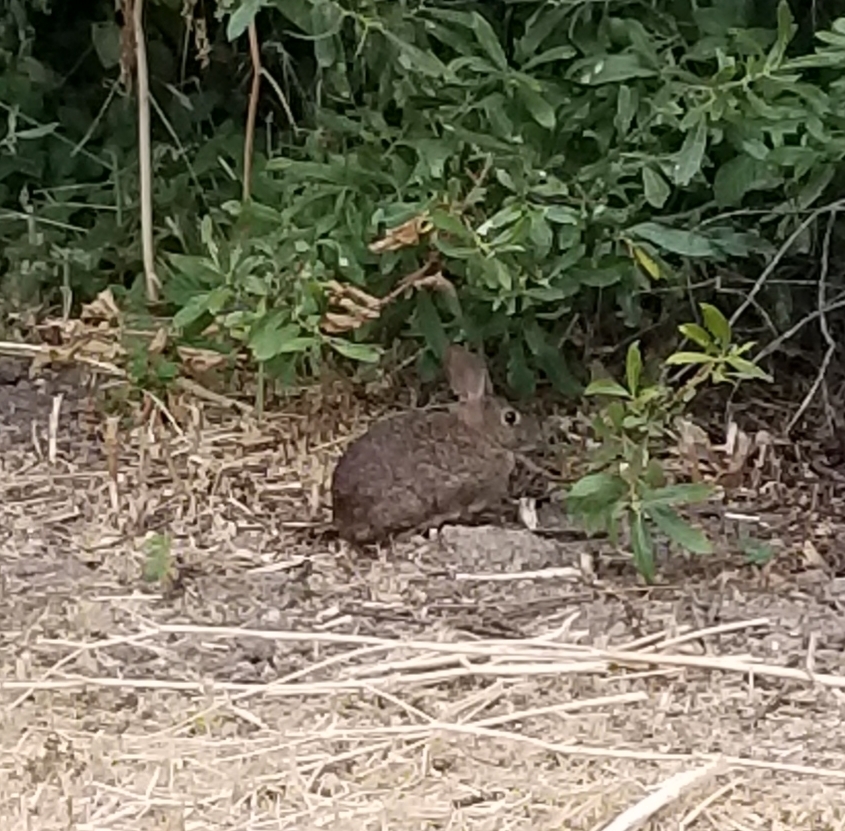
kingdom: Animalia
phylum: Chordata
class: Mammalia
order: Lagomorpha
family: Leporidae
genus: Sylvilagus
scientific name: Sylvilagus bachmani
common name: Brush rabbit
